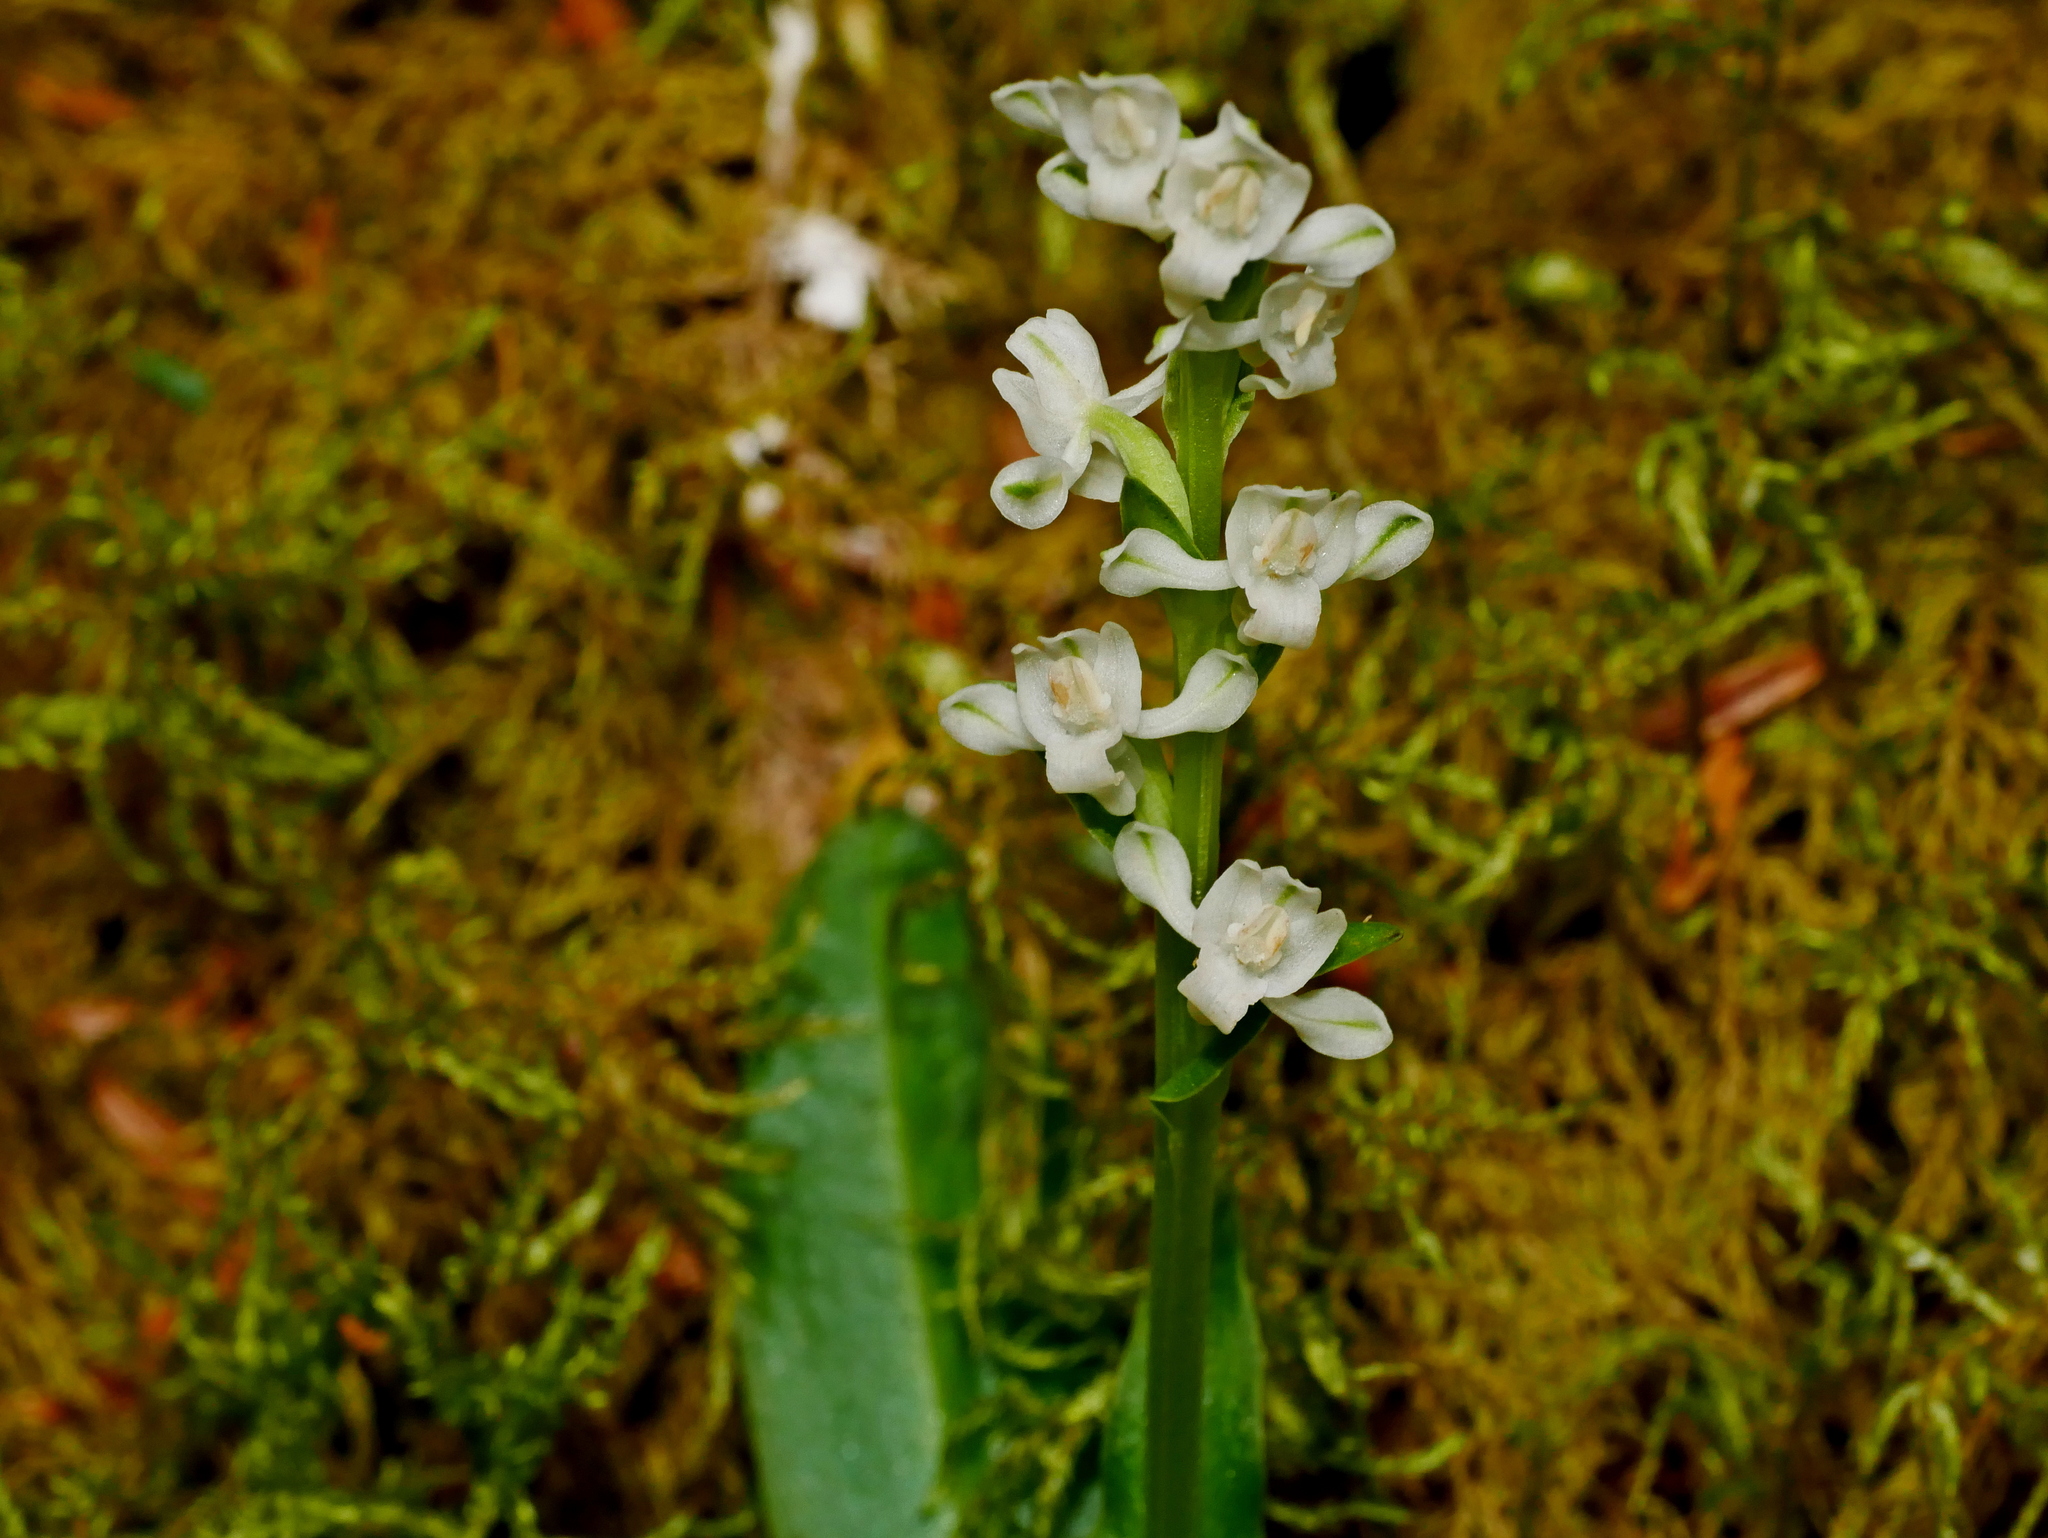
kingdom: Plantae
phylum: Tracheophyta
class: Liliopsida
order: Asparagales
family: Orchidaceae
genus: Platanthera
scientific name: Platanthera brevicalcarata
